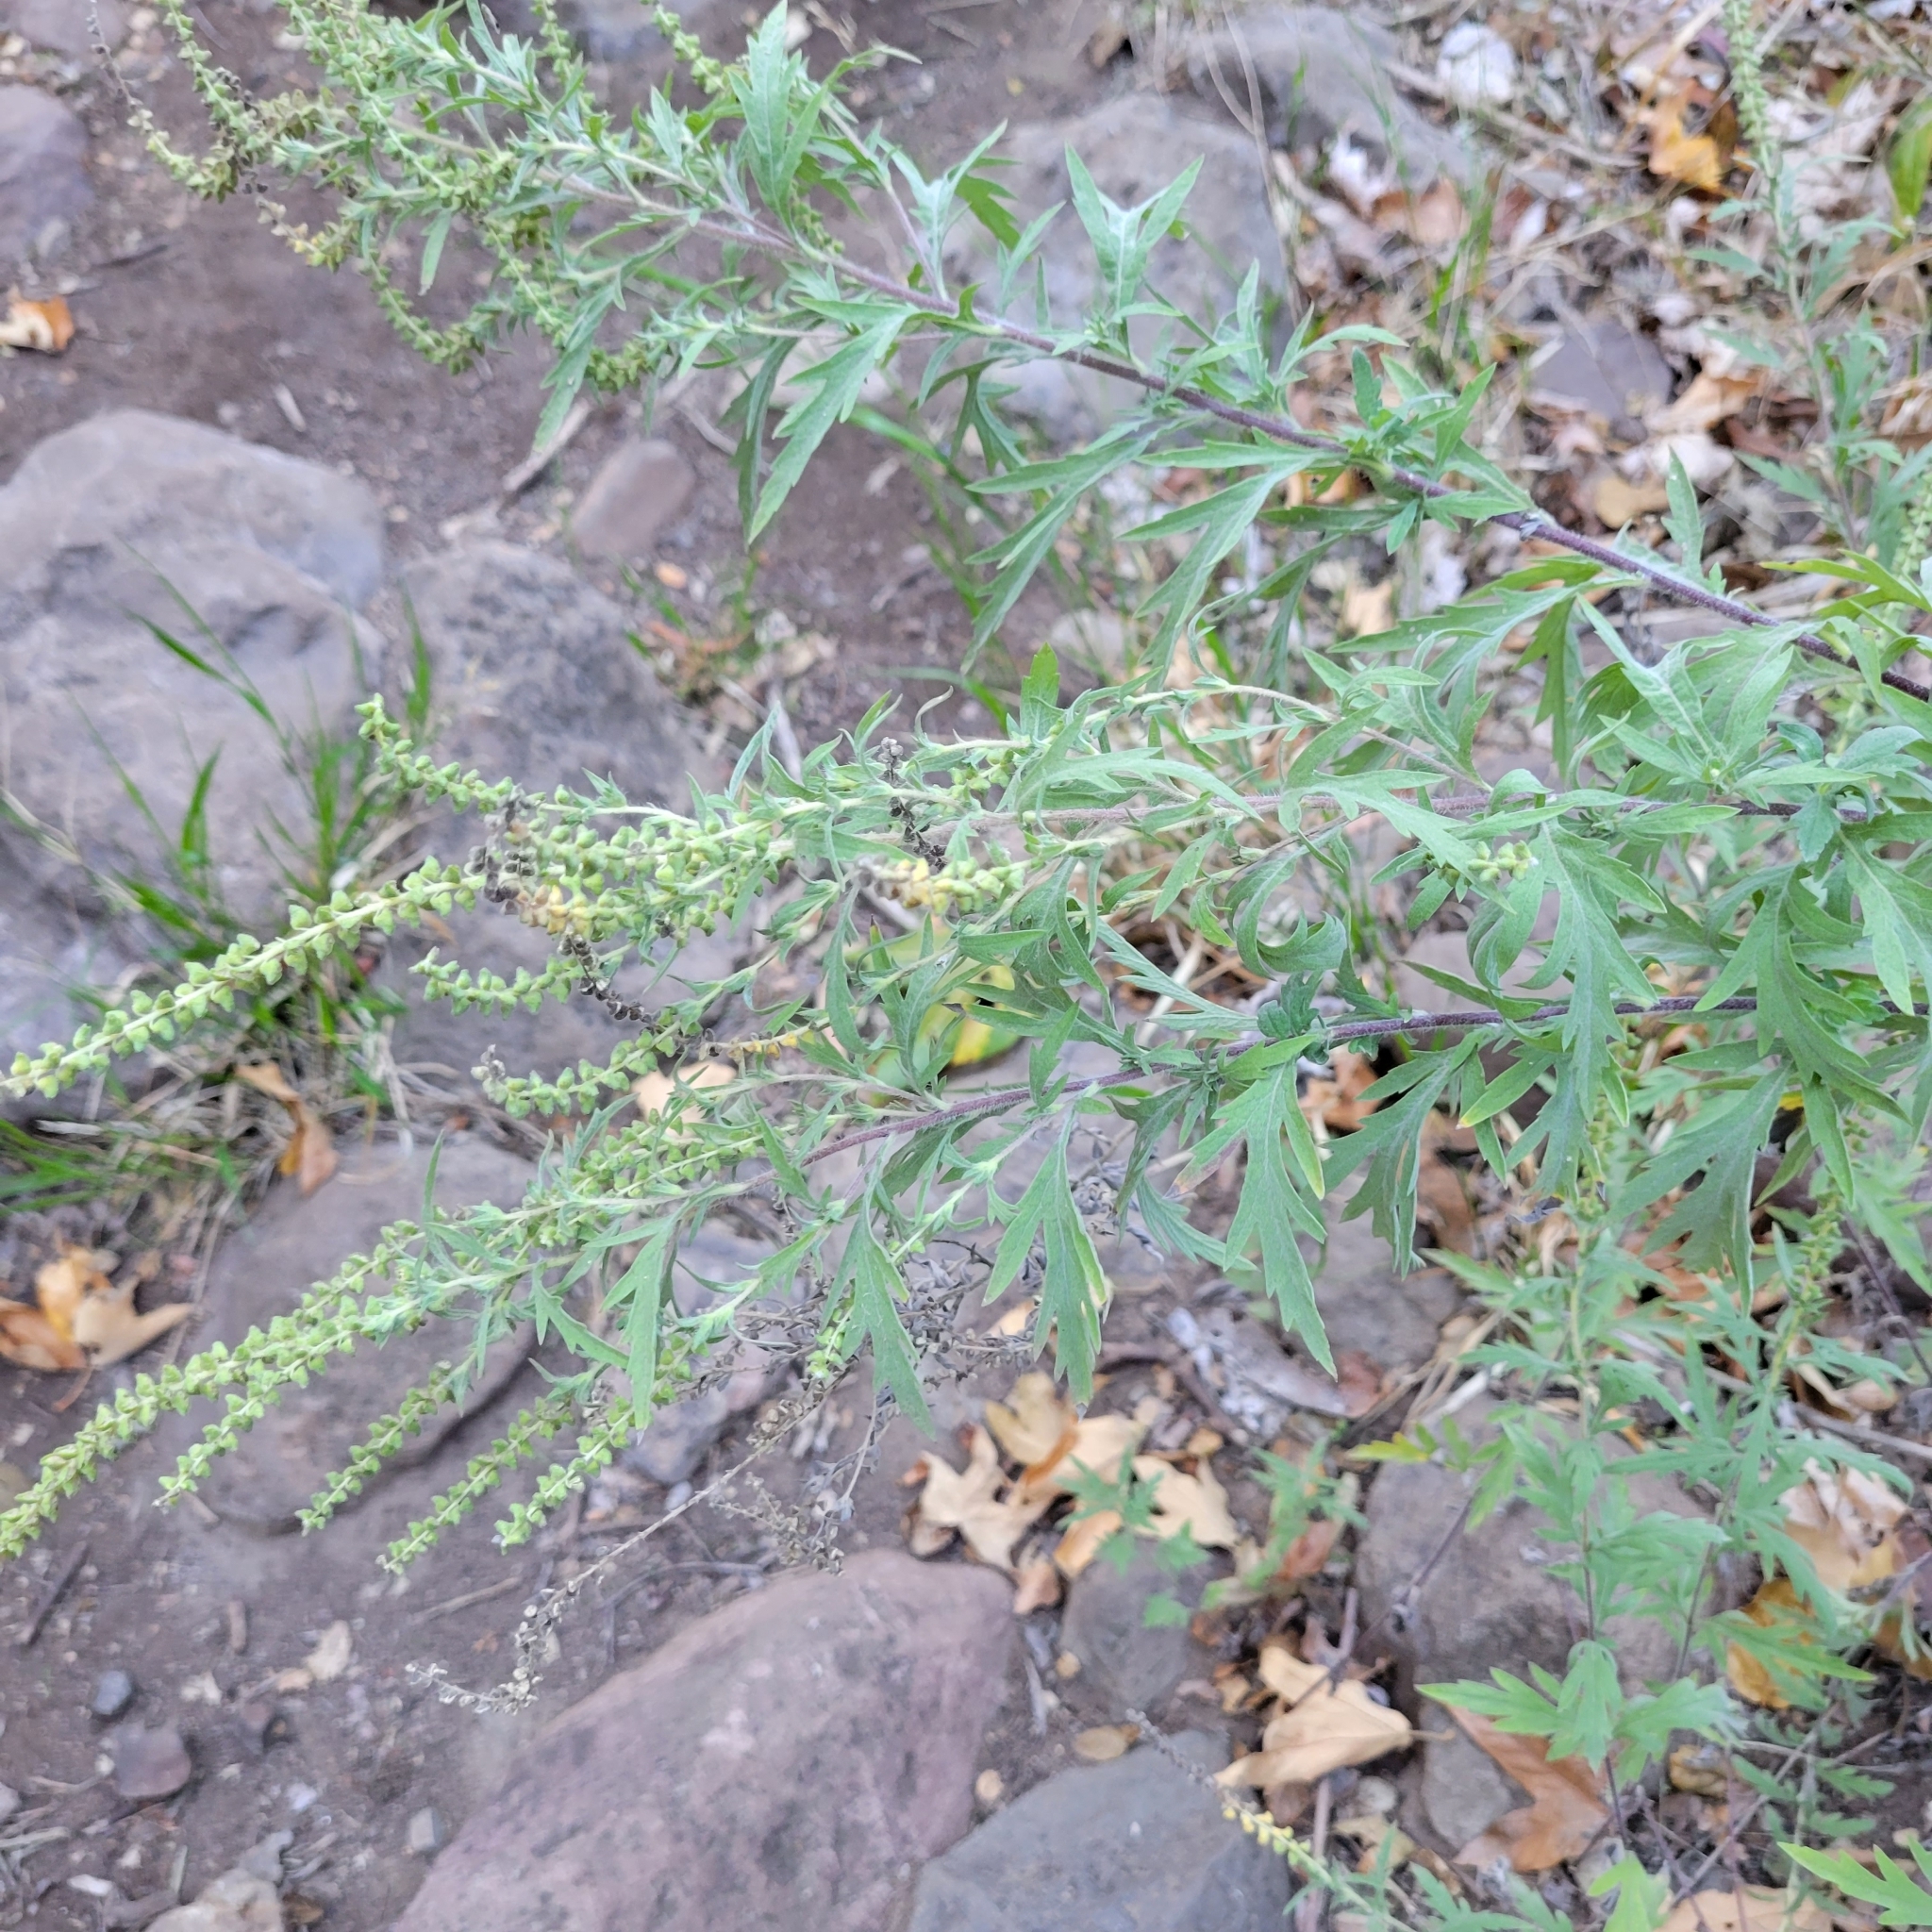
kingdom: Plantae
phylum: Tracheophyta
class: Magnoliopsida
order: Asterales
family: Asteraceae
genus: Ambrosia
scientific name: Ambrosia psilostachya
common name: Perennial ragweed
